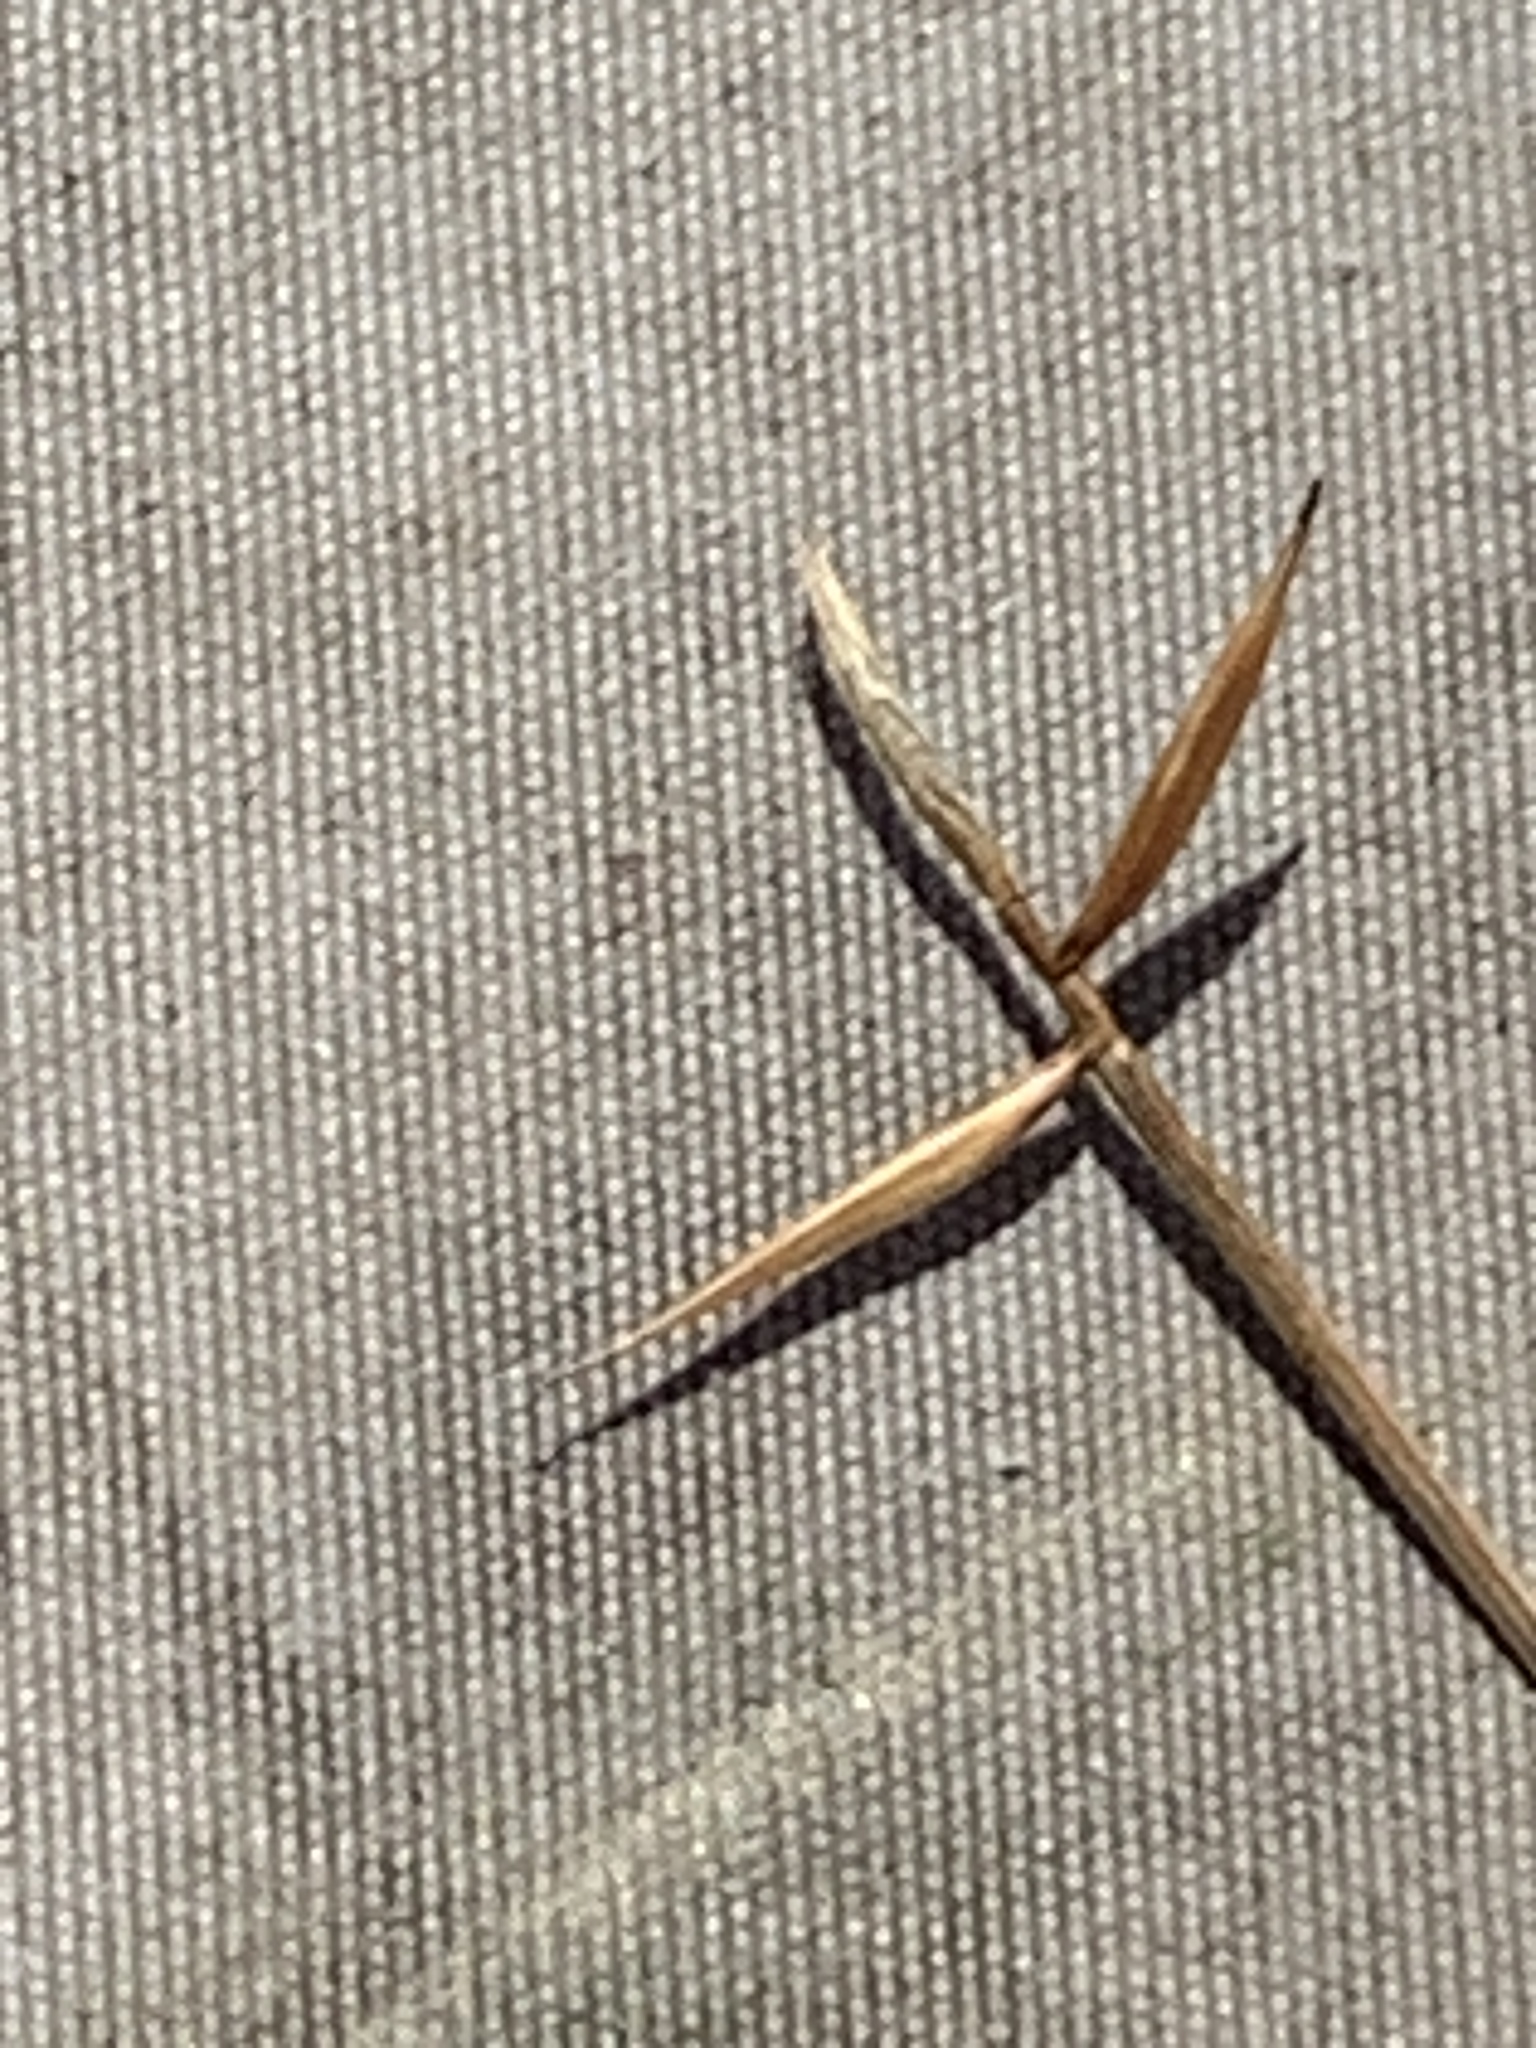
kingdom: Plantae
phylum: Tracheophyta
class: Liliopsida
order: Poales
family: Cyperaceae
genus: Carex
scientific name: Carex pauciflora
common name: Few-flowered sedge
